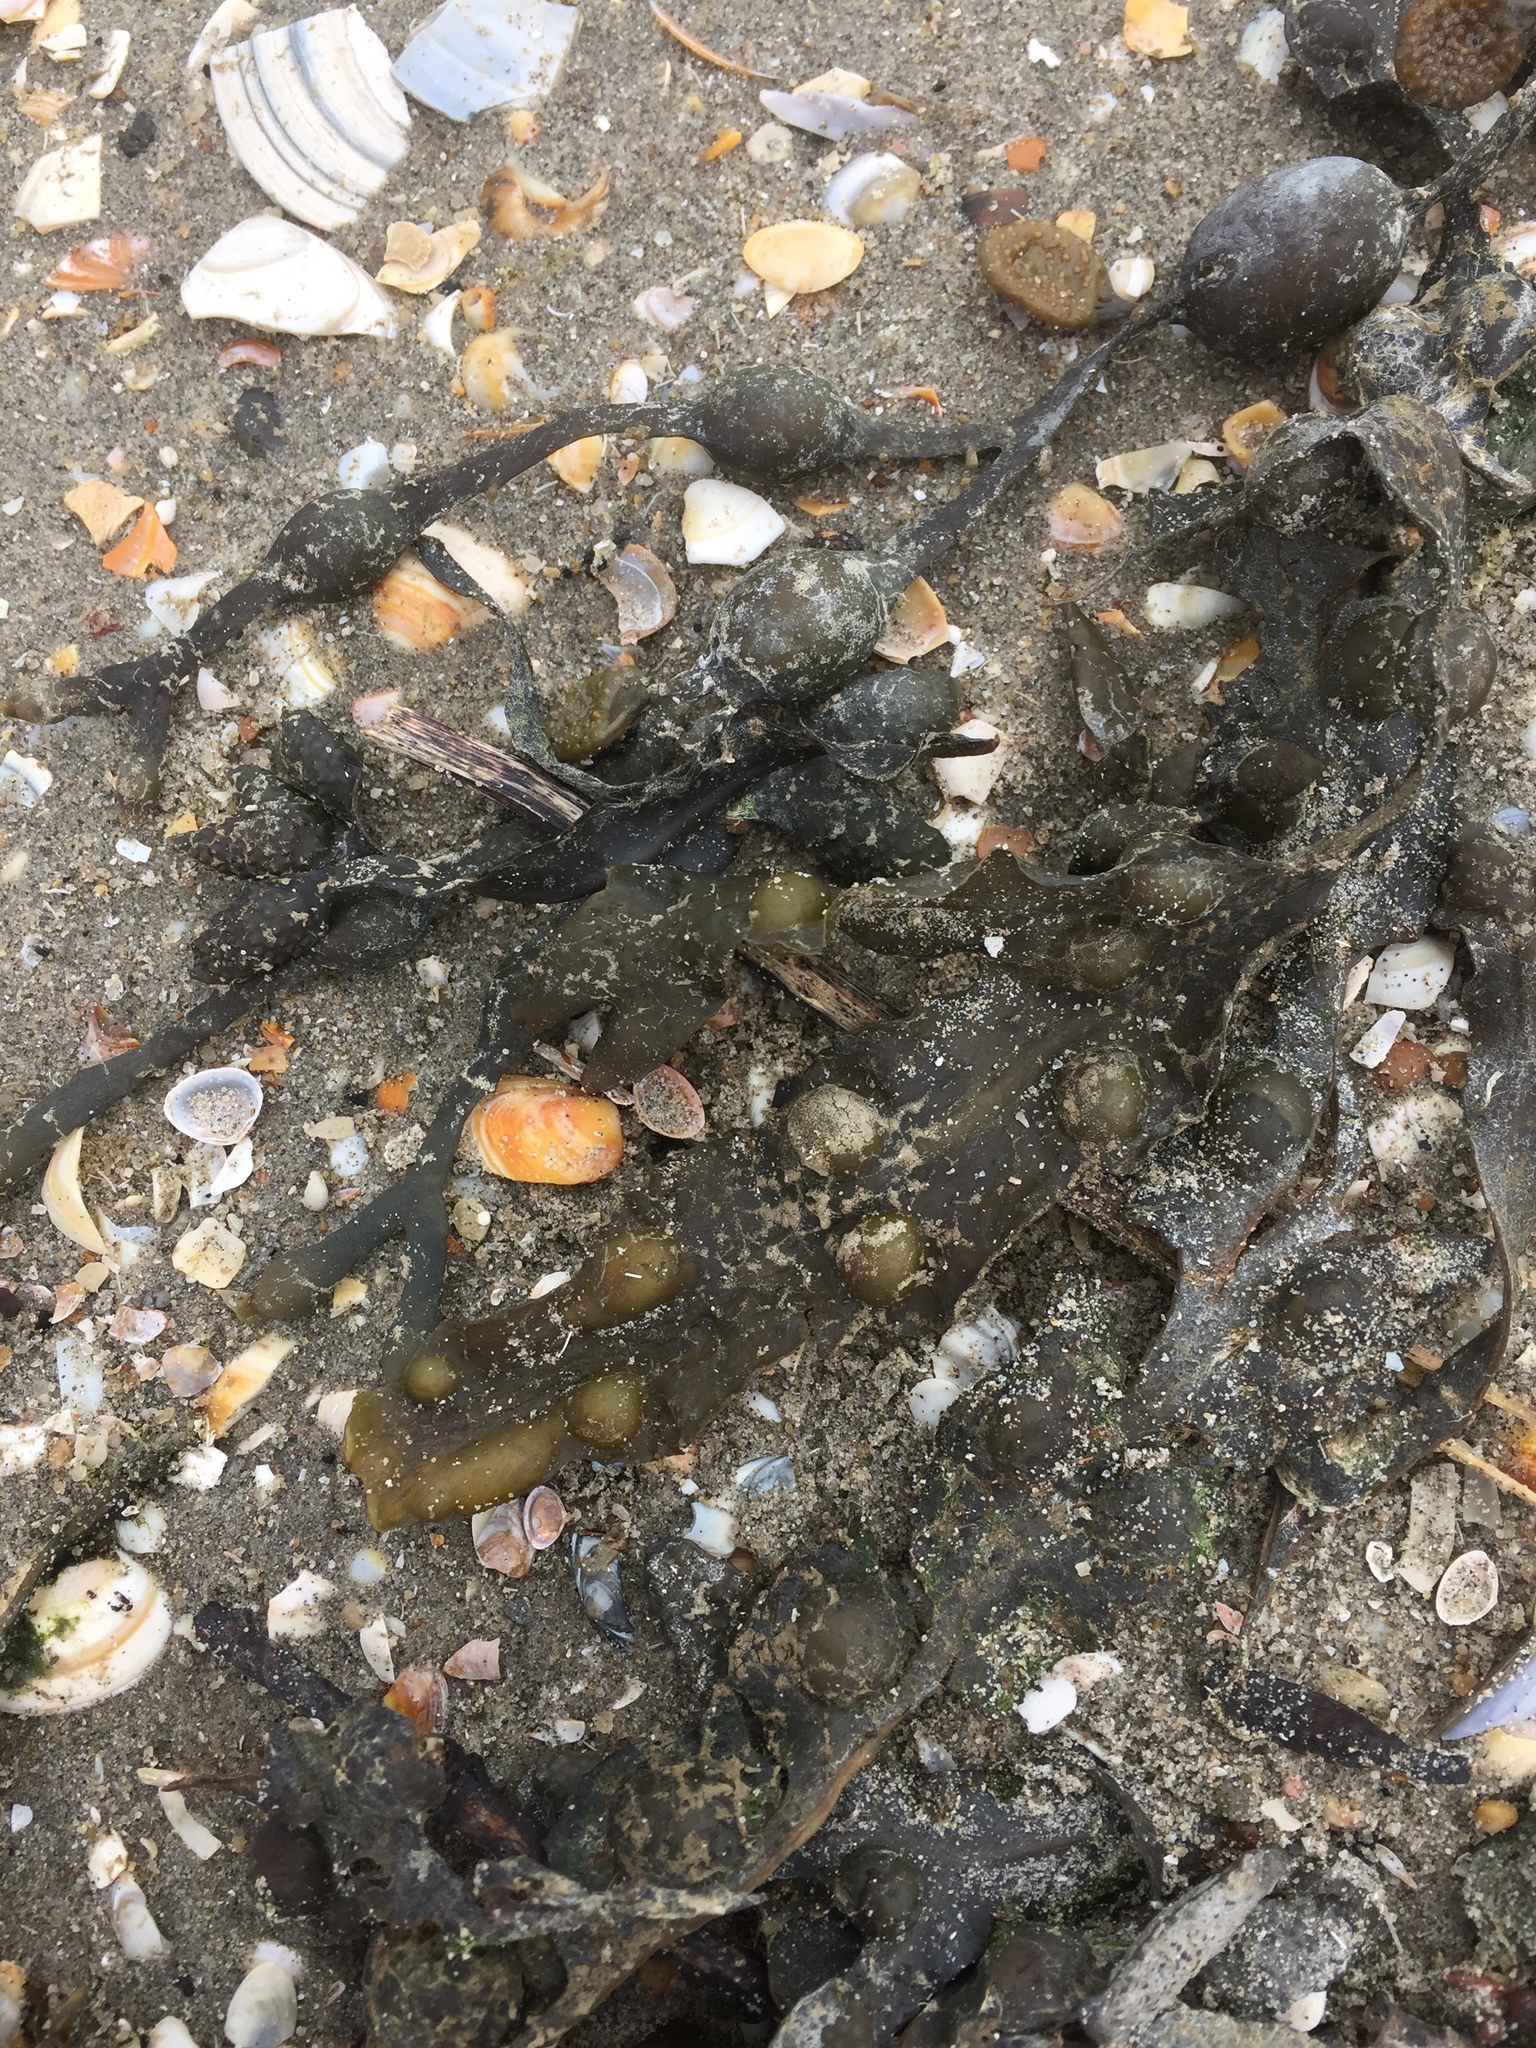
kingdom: Chromista
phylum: Ochrophyta
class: Phaeophyceae
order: Fucales
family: Fucaceae
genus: Ascophyllum
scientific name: Ascophyllum nodosum
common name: Knotted wrack
